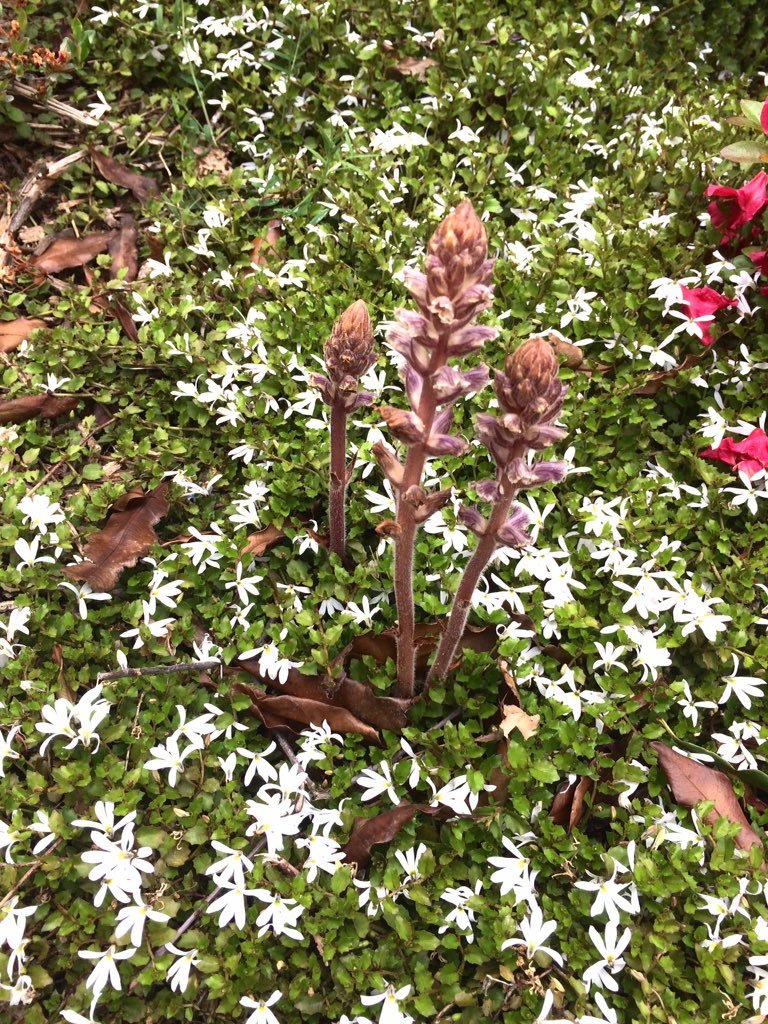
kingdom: Plantae
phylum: Tracheophyta
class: Magnoliopsida
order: Lamiales
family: Orobanchaceae
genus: Orobanche
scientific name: Orobanche minor
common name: Common broomrape
